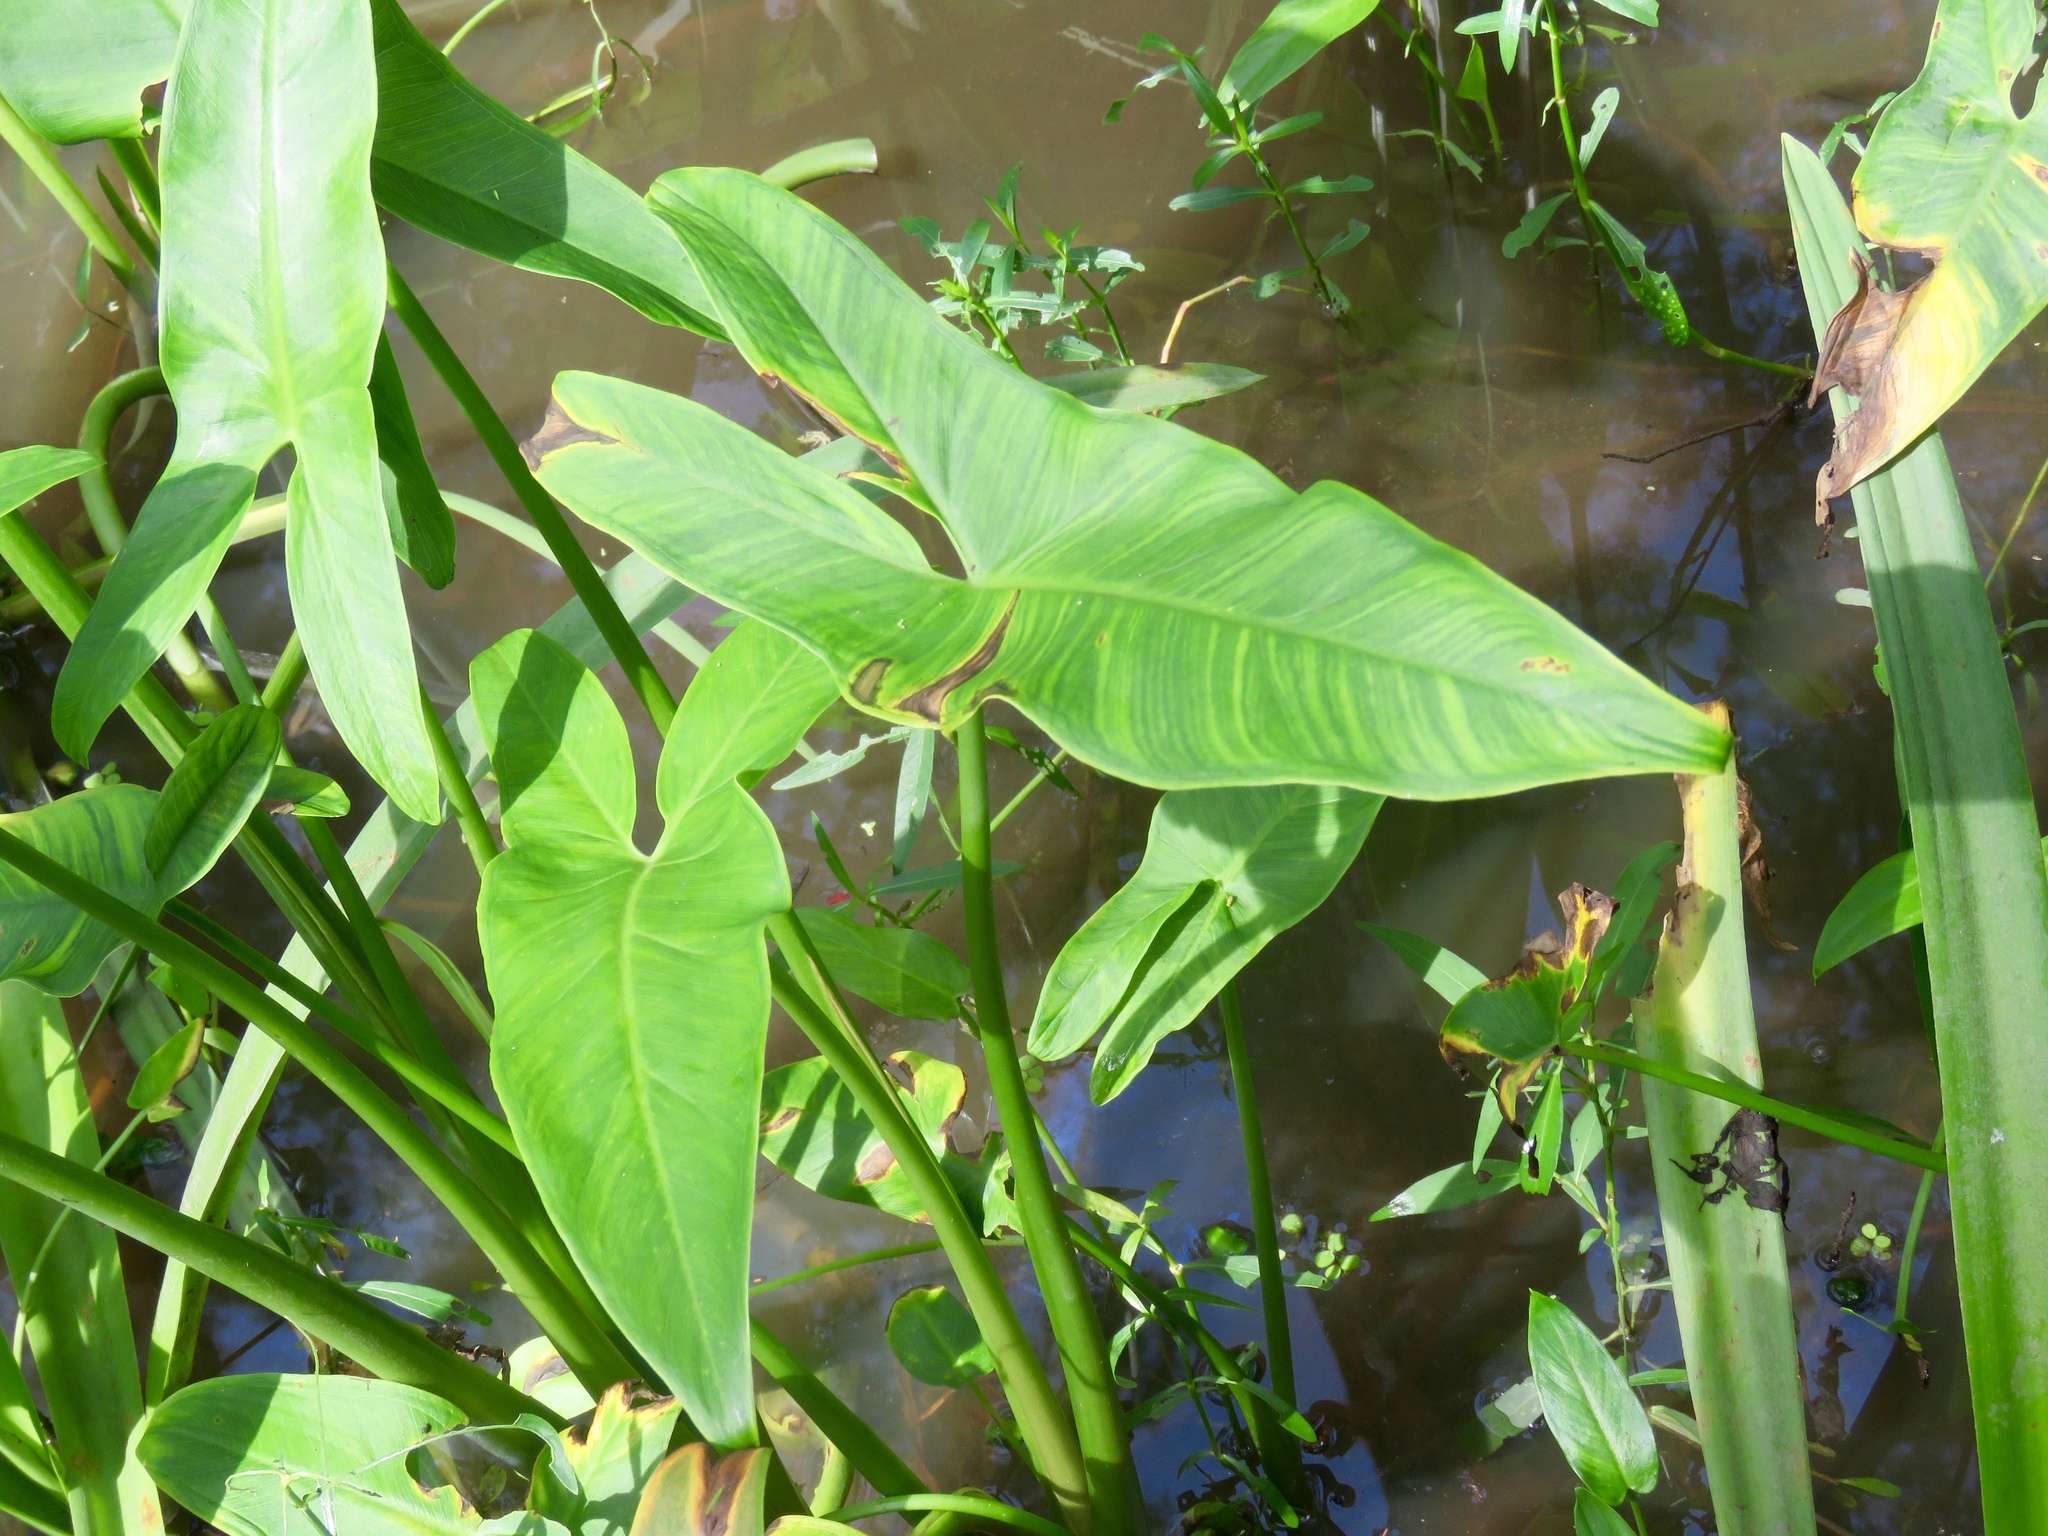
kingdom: Plantae
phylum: Tracheophyta
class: Liliopsida
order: Alismatales
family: Araceae
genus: Peltandra
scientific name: Peltandra virginica
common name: Arrow arum
